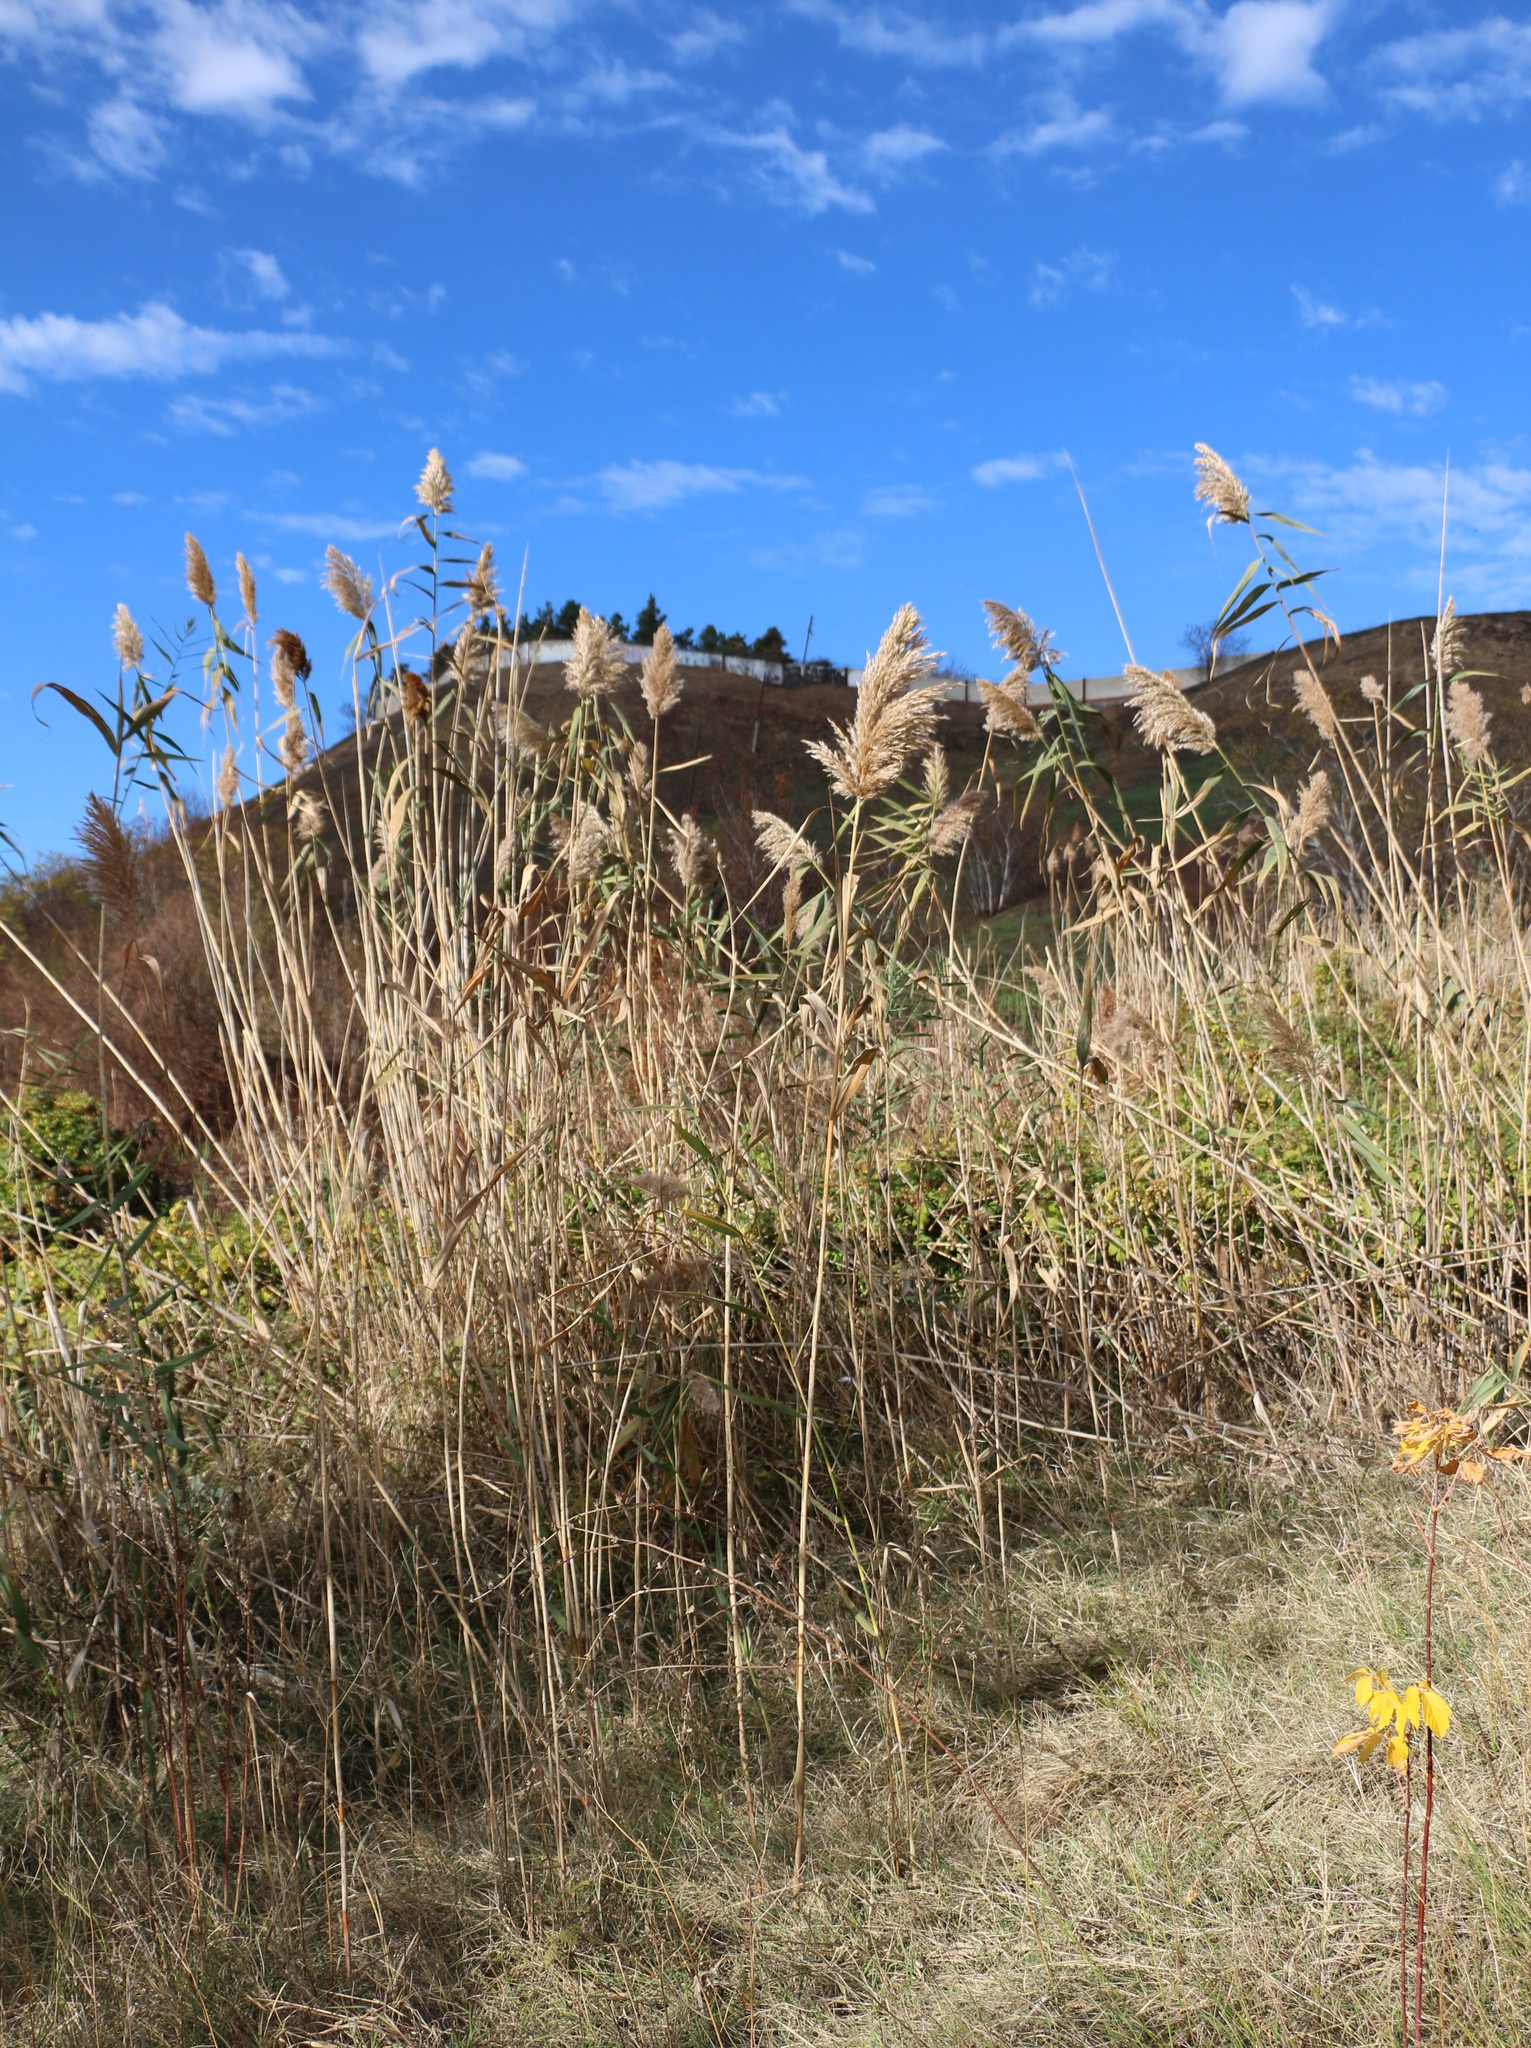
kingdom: Plantae
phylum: Tracheophyta
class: Liliopsida
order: Poales
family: Poaceae
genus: Phragmites
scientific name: Phragmites australis
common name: Common reed
